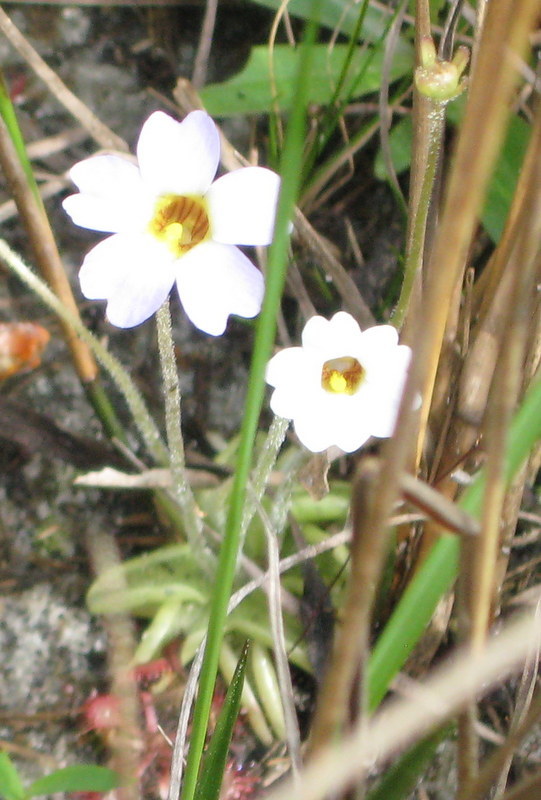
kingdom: Plantae
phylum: Tracheophyta
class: Magnoliopsida
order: Lamiales
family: Lentibulariaceae
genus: Pinguicula
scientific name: Pinguicula pumila
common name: Small butterwort
